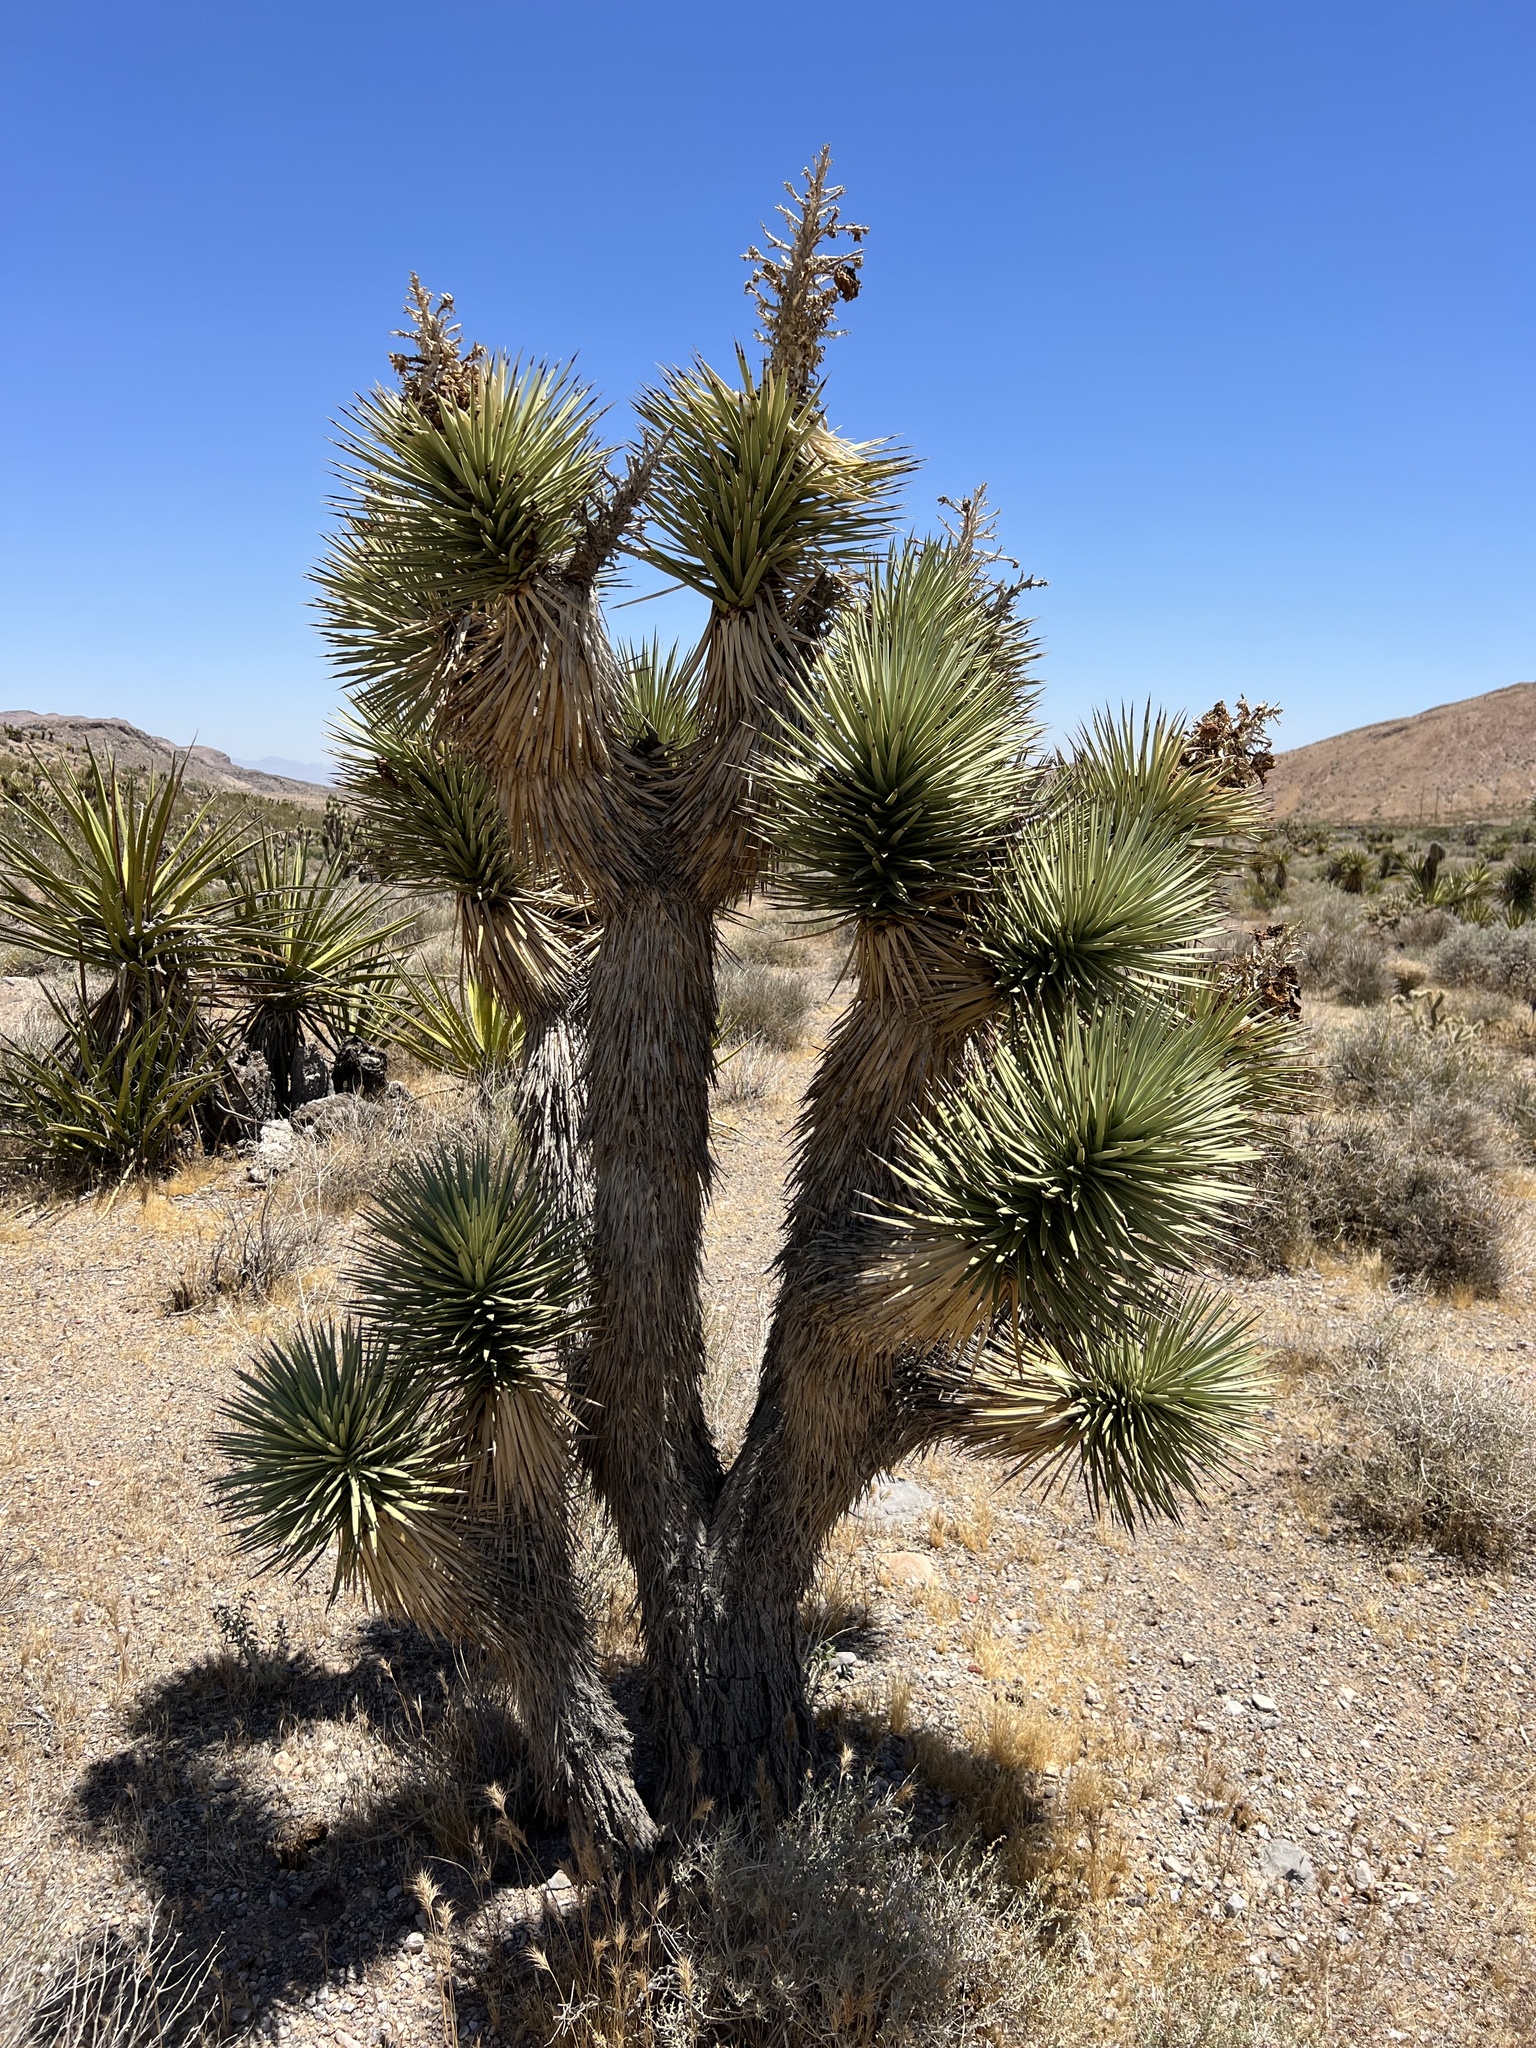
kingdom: Plantae
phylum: Tracheophyta
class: Liliopsida
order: Asparagales
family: Asparagaceae
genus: Yucca
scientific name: Yucca brevifolia
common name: Joshua tree
